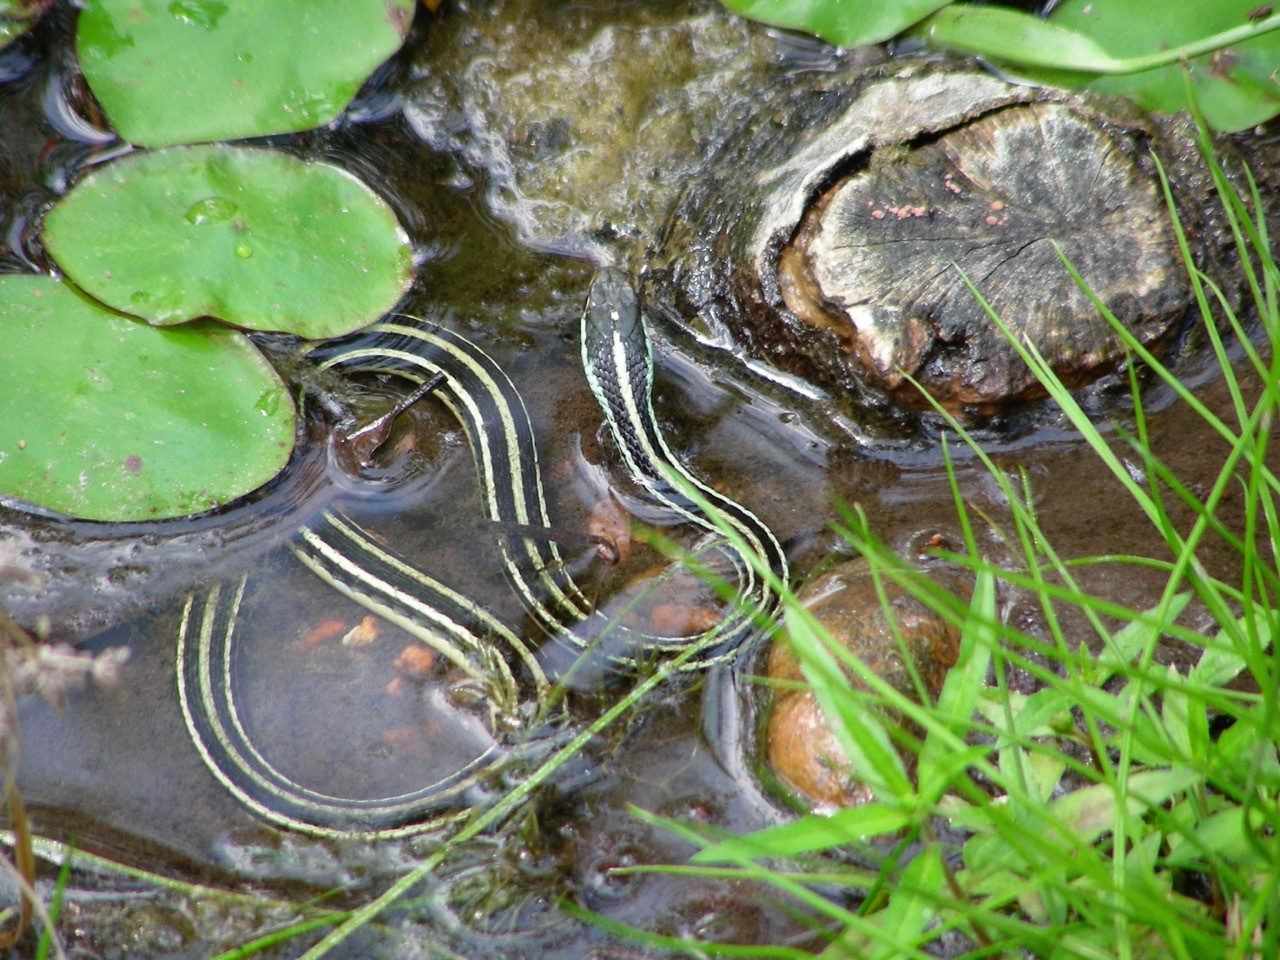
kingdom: Animalia
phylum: Chordata
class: Squamata
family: Colubridae
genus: Thamnophis
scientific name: Thamnophis proximus
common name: Western ribbon snake
